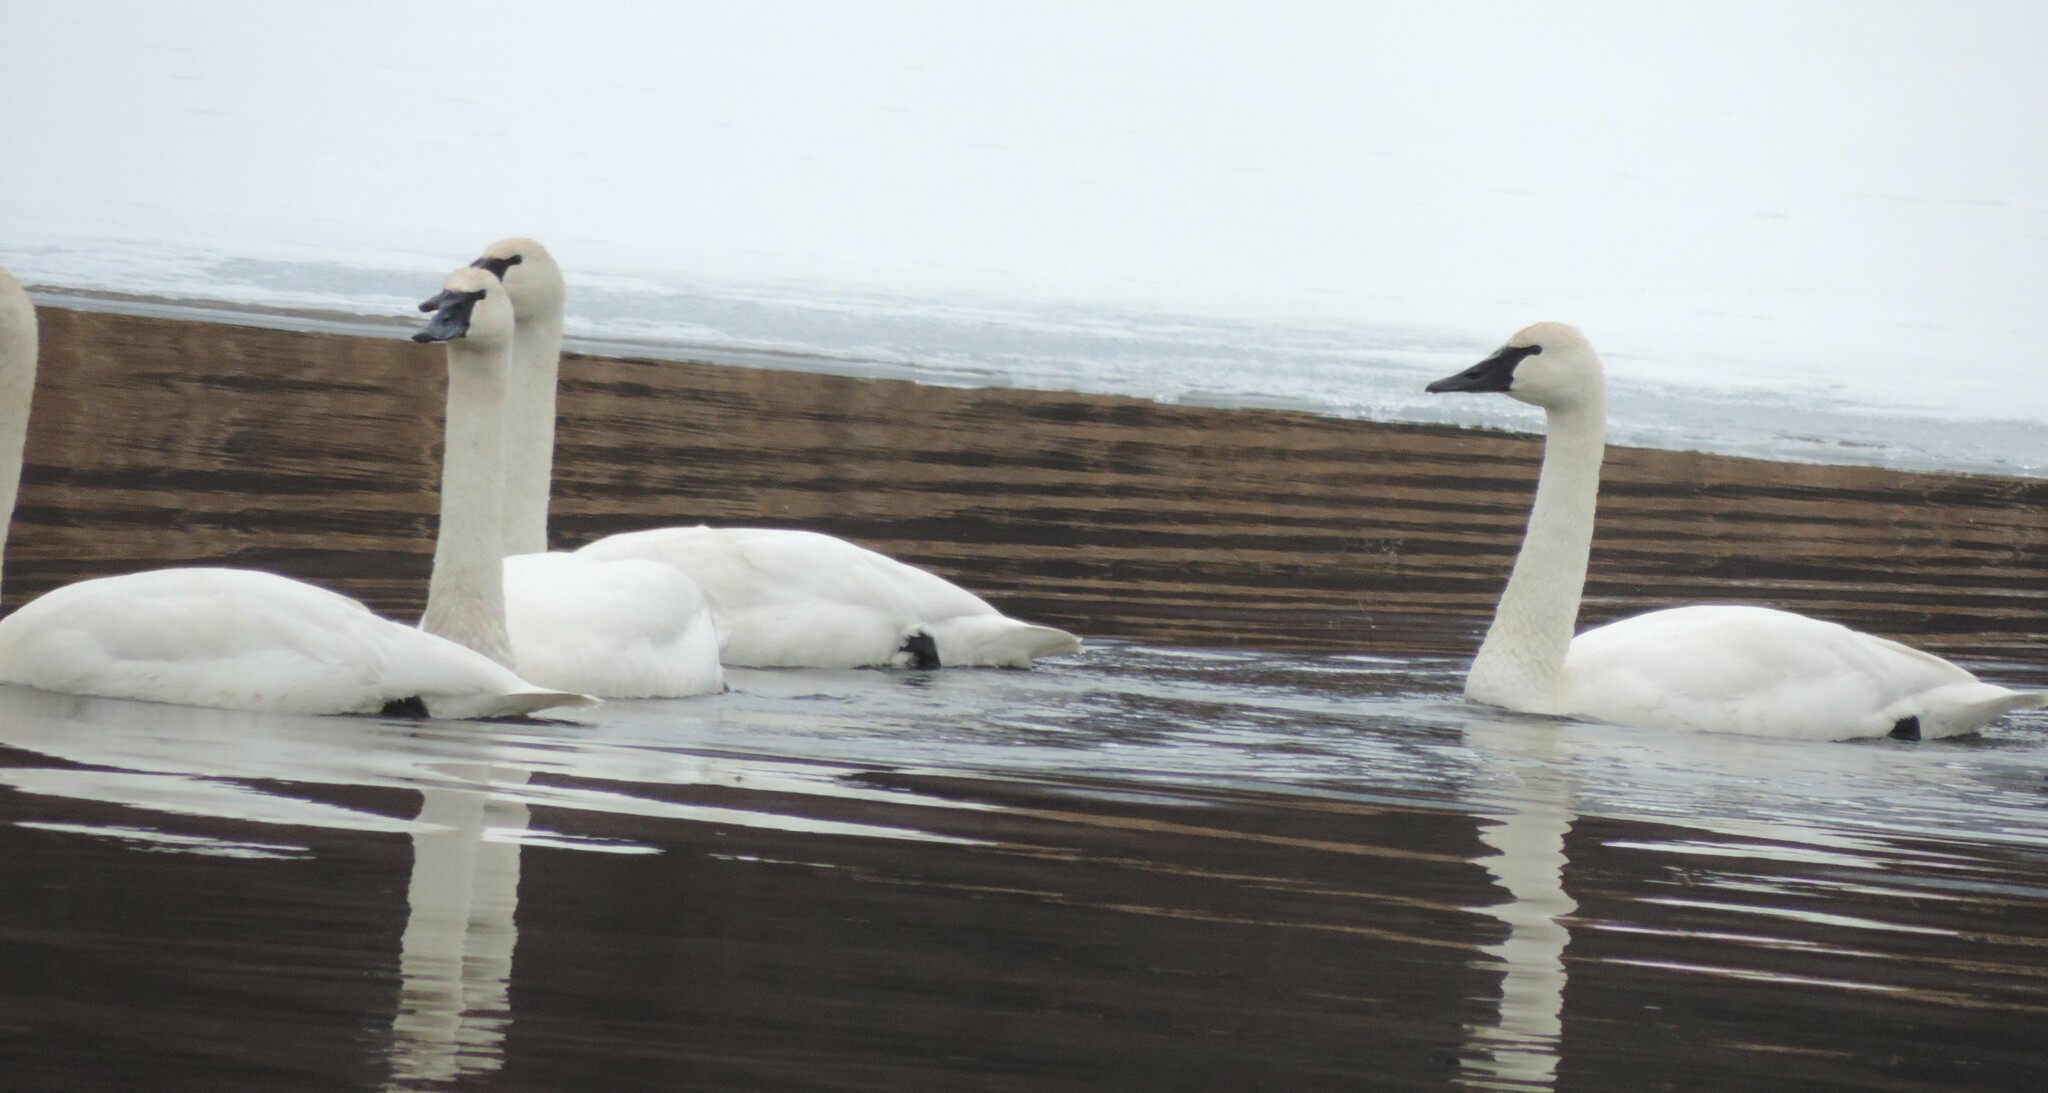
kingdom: Animalia
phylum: Chordata
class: Aves
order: Anseriformes
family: Anatidae
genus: Cygnus
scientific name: Cygnus buccinator
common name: Trumpeter swan
